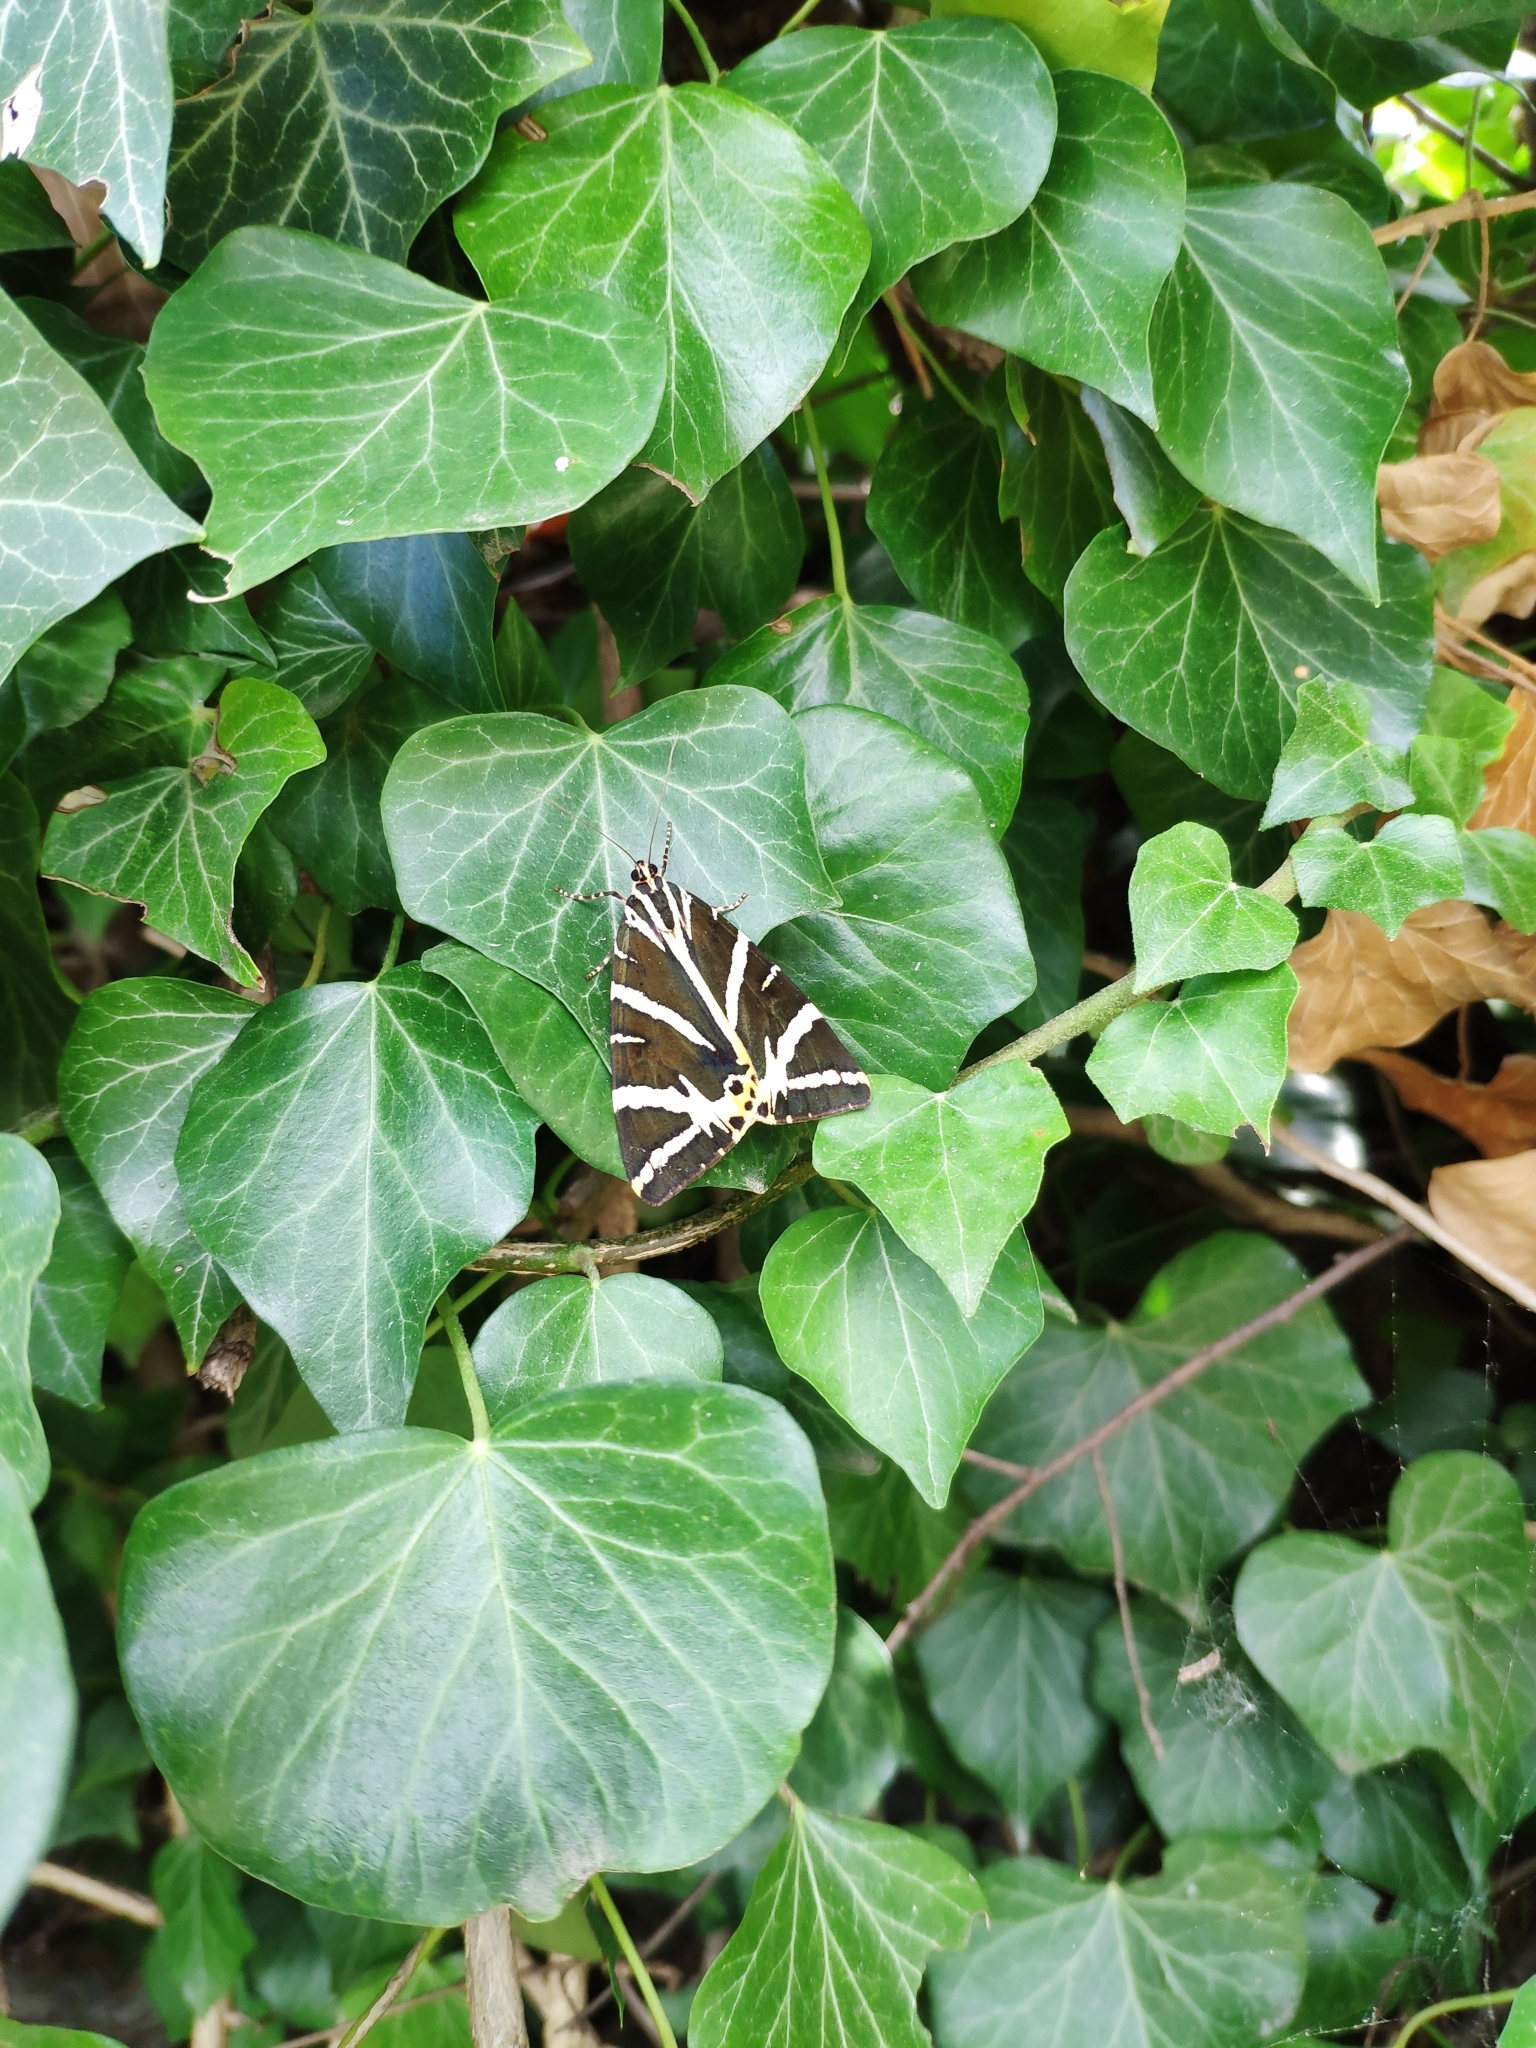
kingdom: Animalia
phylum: Arthropoda
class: Insecta
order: Lepidoptera
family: Erebidae
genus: Euplagia
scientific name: Euplagia quadripunctaria
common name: Jersey tiger
